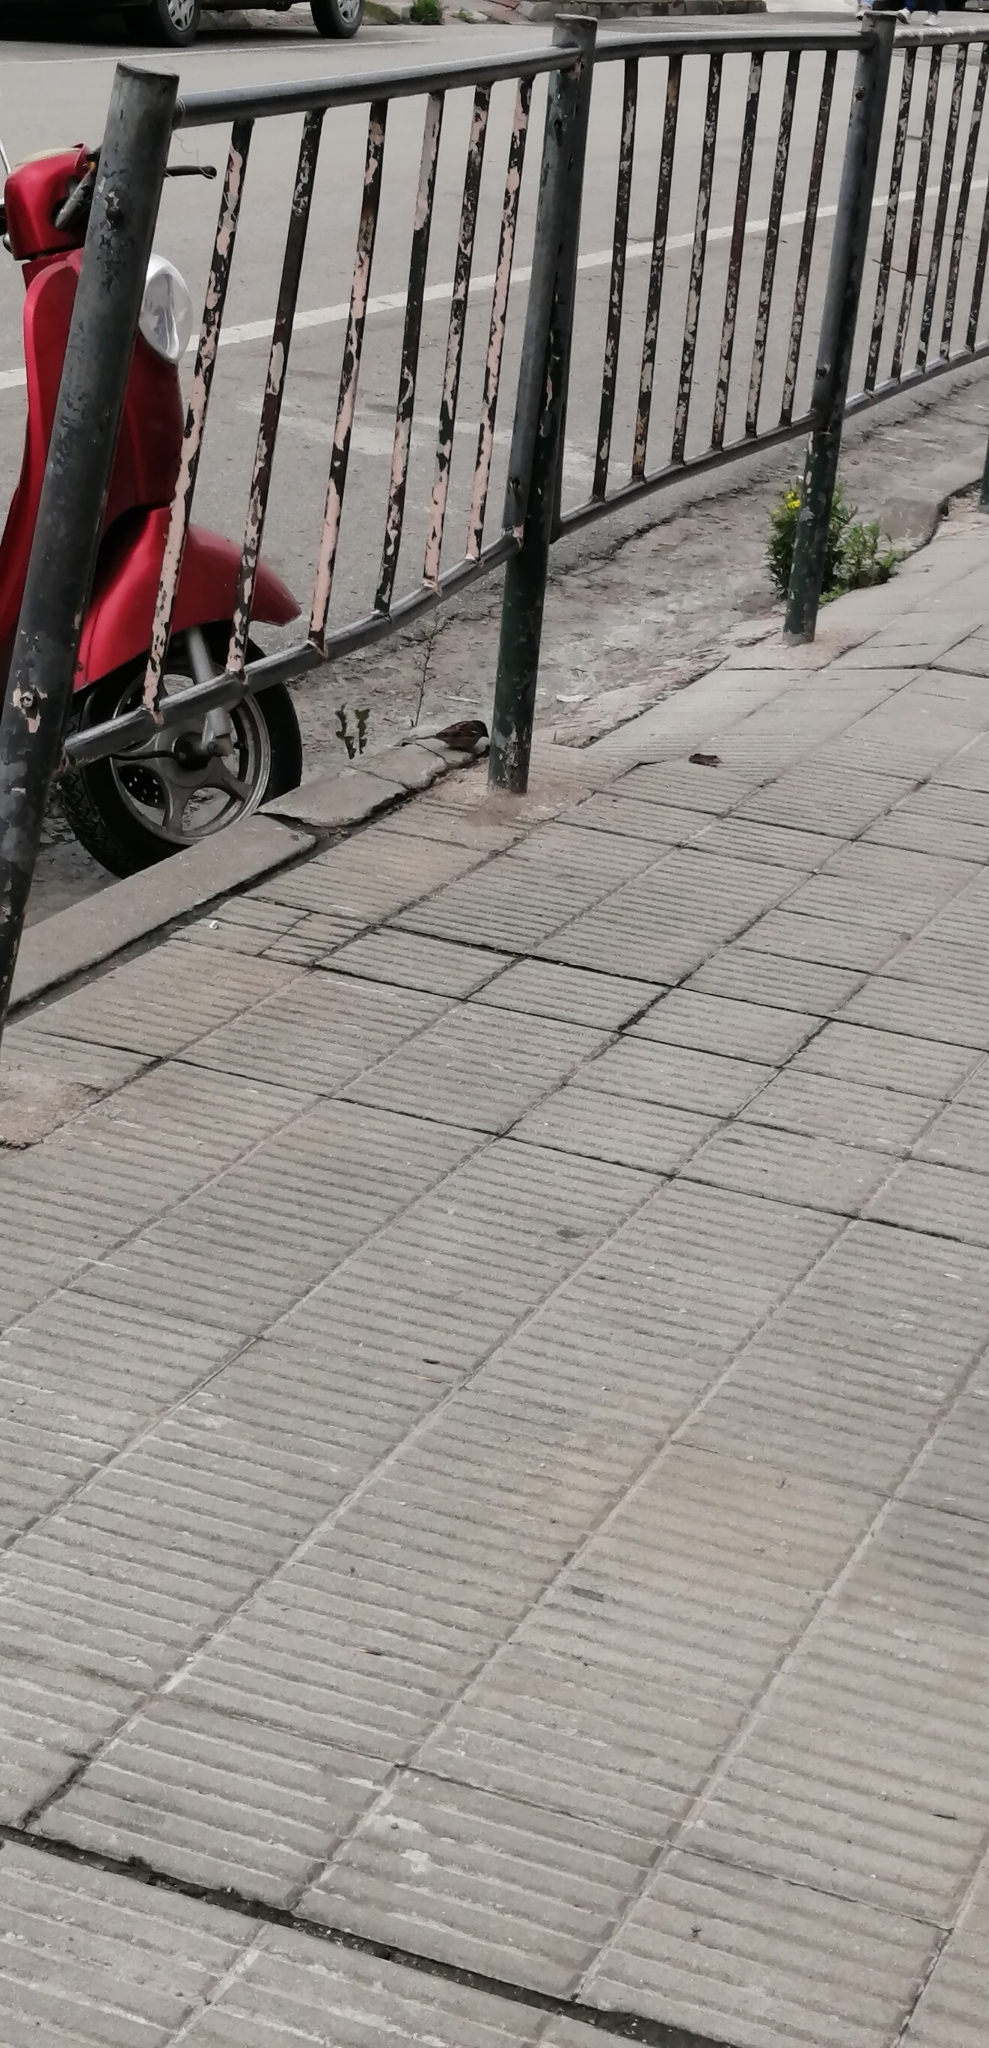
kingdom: Animalia
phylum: Chordata
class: Aves
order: Passeriformes
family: Passeridae
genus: Passer
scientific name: Passer domesticus
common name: House sparrow
